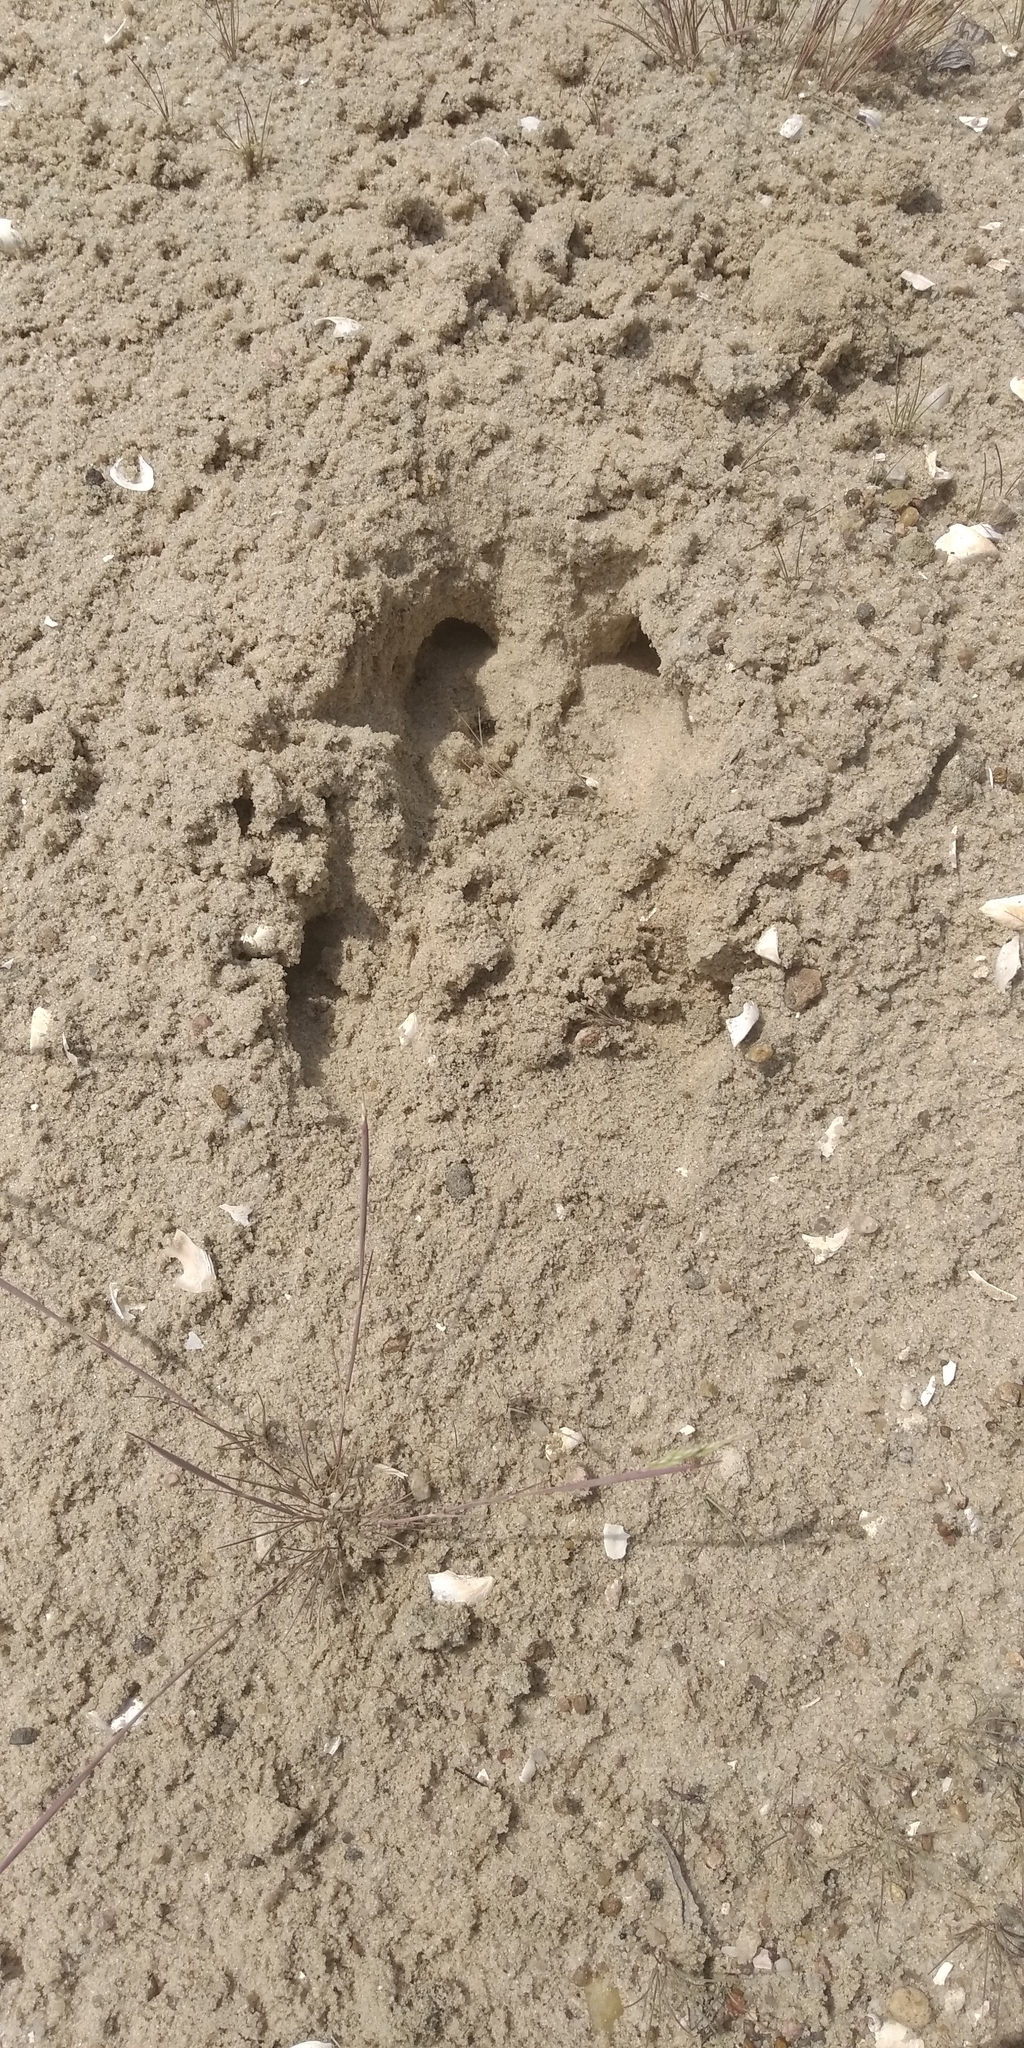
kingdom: Animalia
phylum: Chordata
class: Mammalia
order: Artiodactyla
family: Suidae
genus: Sus
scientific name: Sus scrofa
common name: Wild boar
